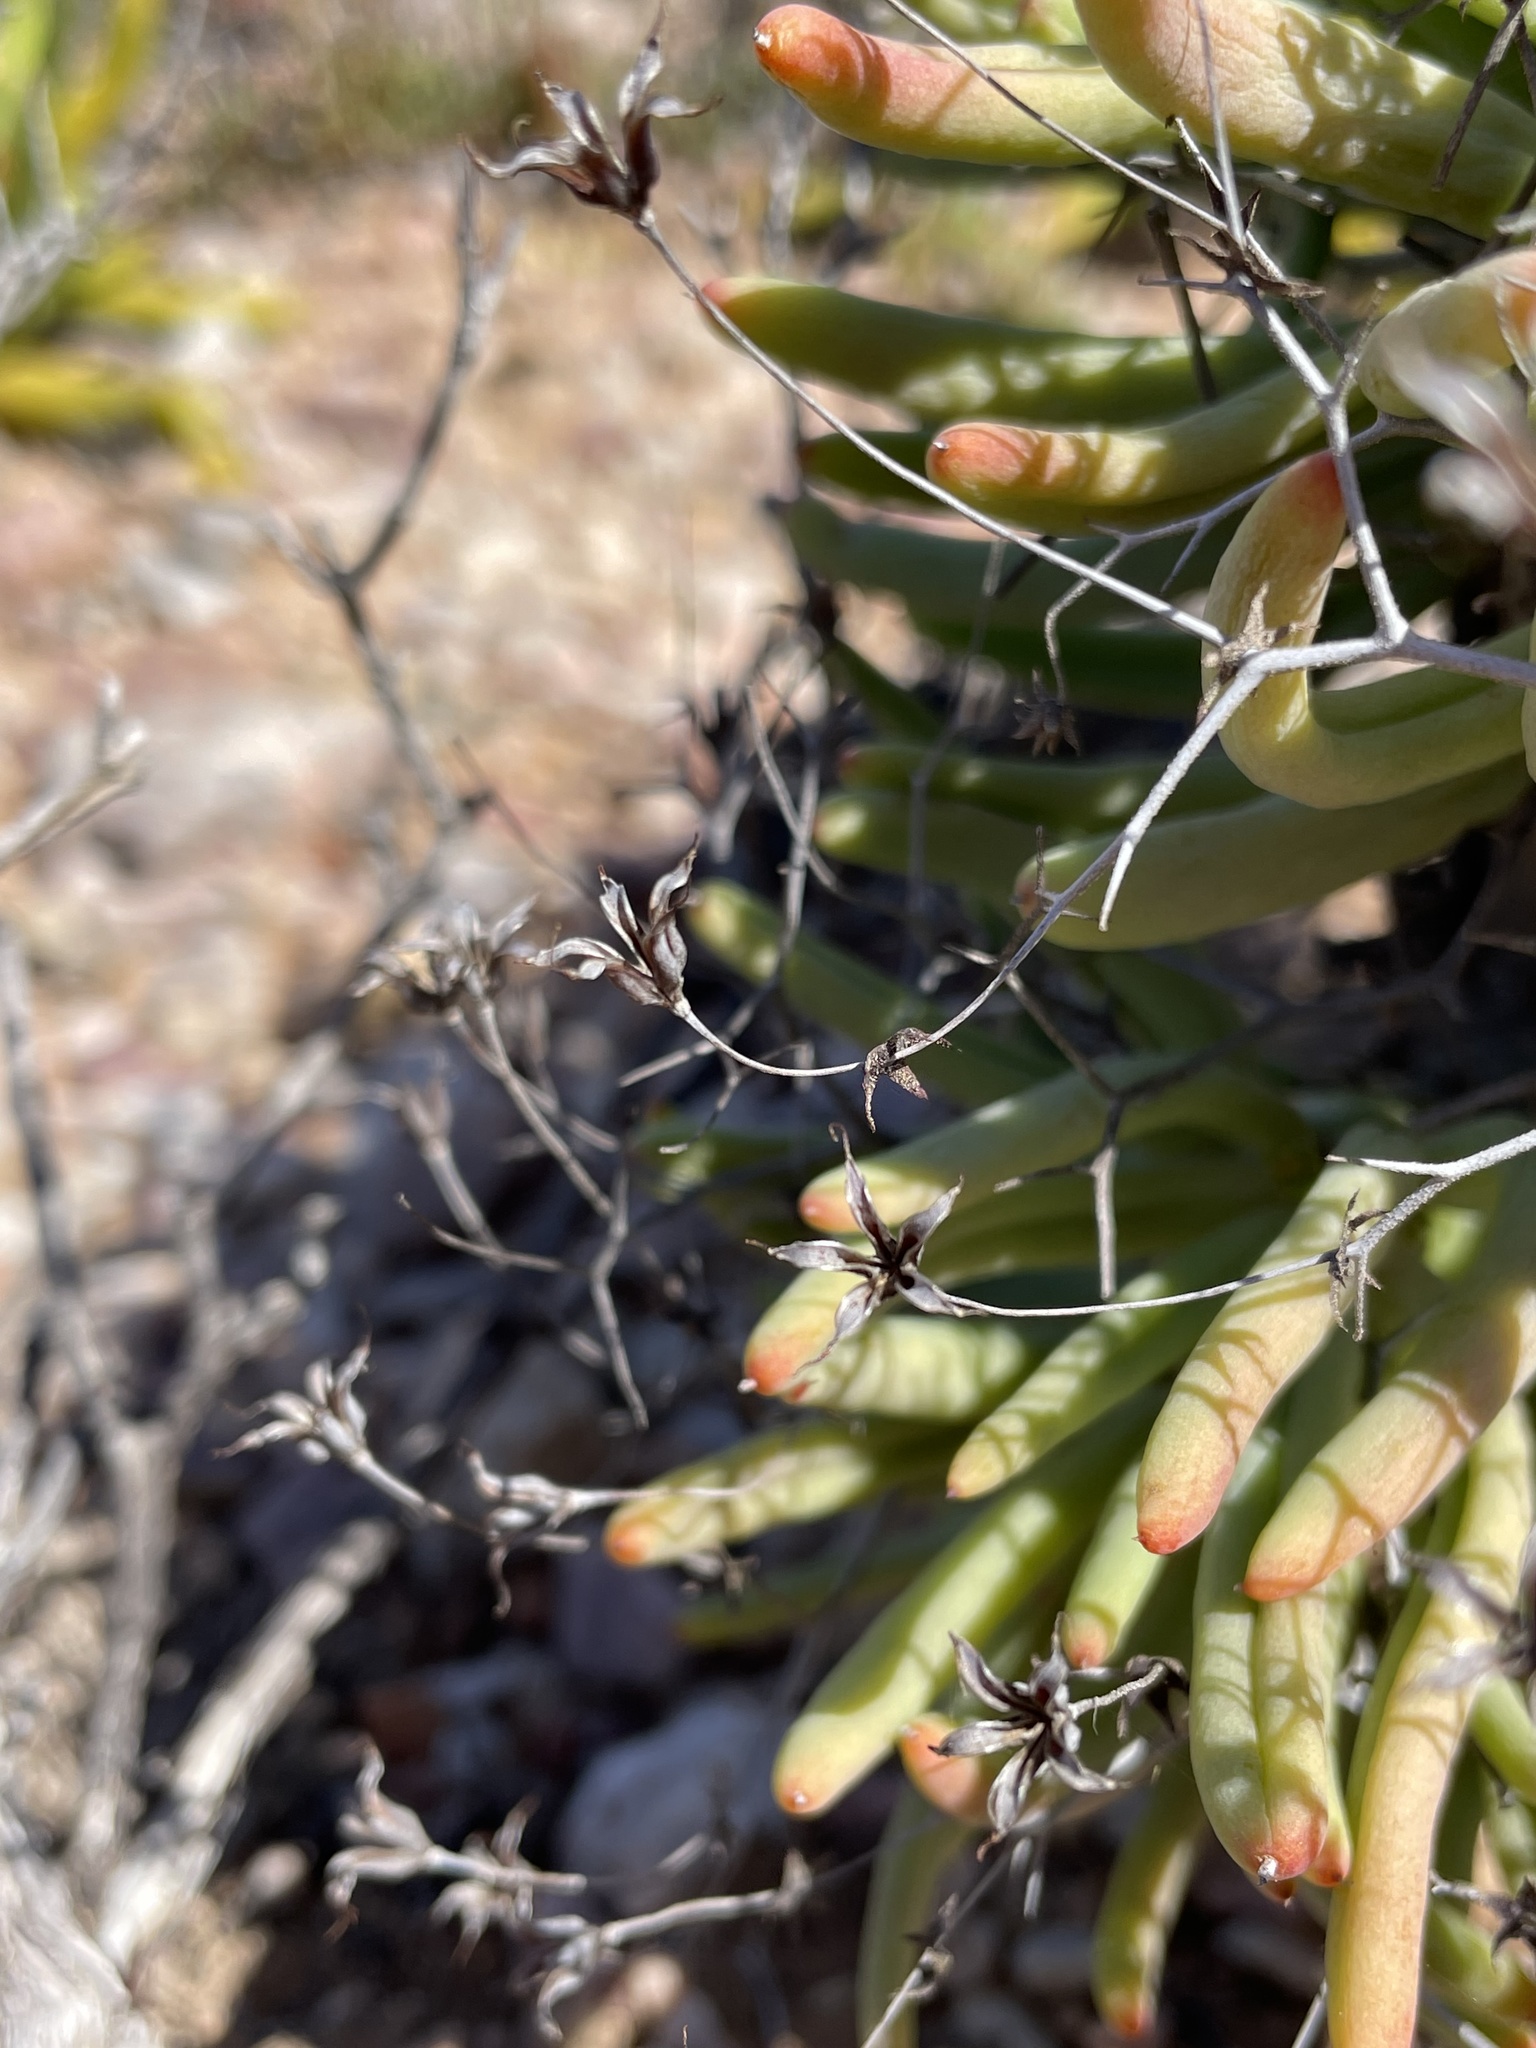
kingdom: Plantae
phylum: Tracheophyta
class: Magnoliopsida
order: Saxifragales
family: Crassulaceae
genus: Tylecodon
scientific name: Tylecodon reticulatus
